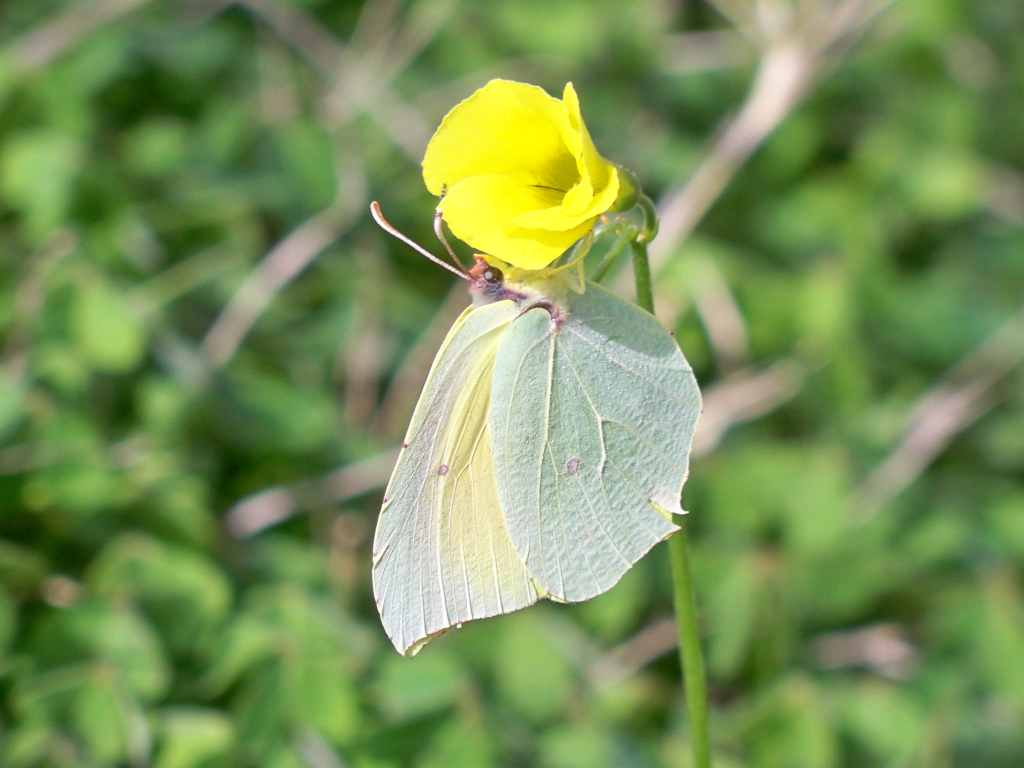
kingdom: Animalia
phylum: Arthropoda
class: Insecta
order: Lepidoptera
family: Pieridae
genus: Gonepteryx
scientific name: Gonepteryx cleopatra
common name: Cleopatra
